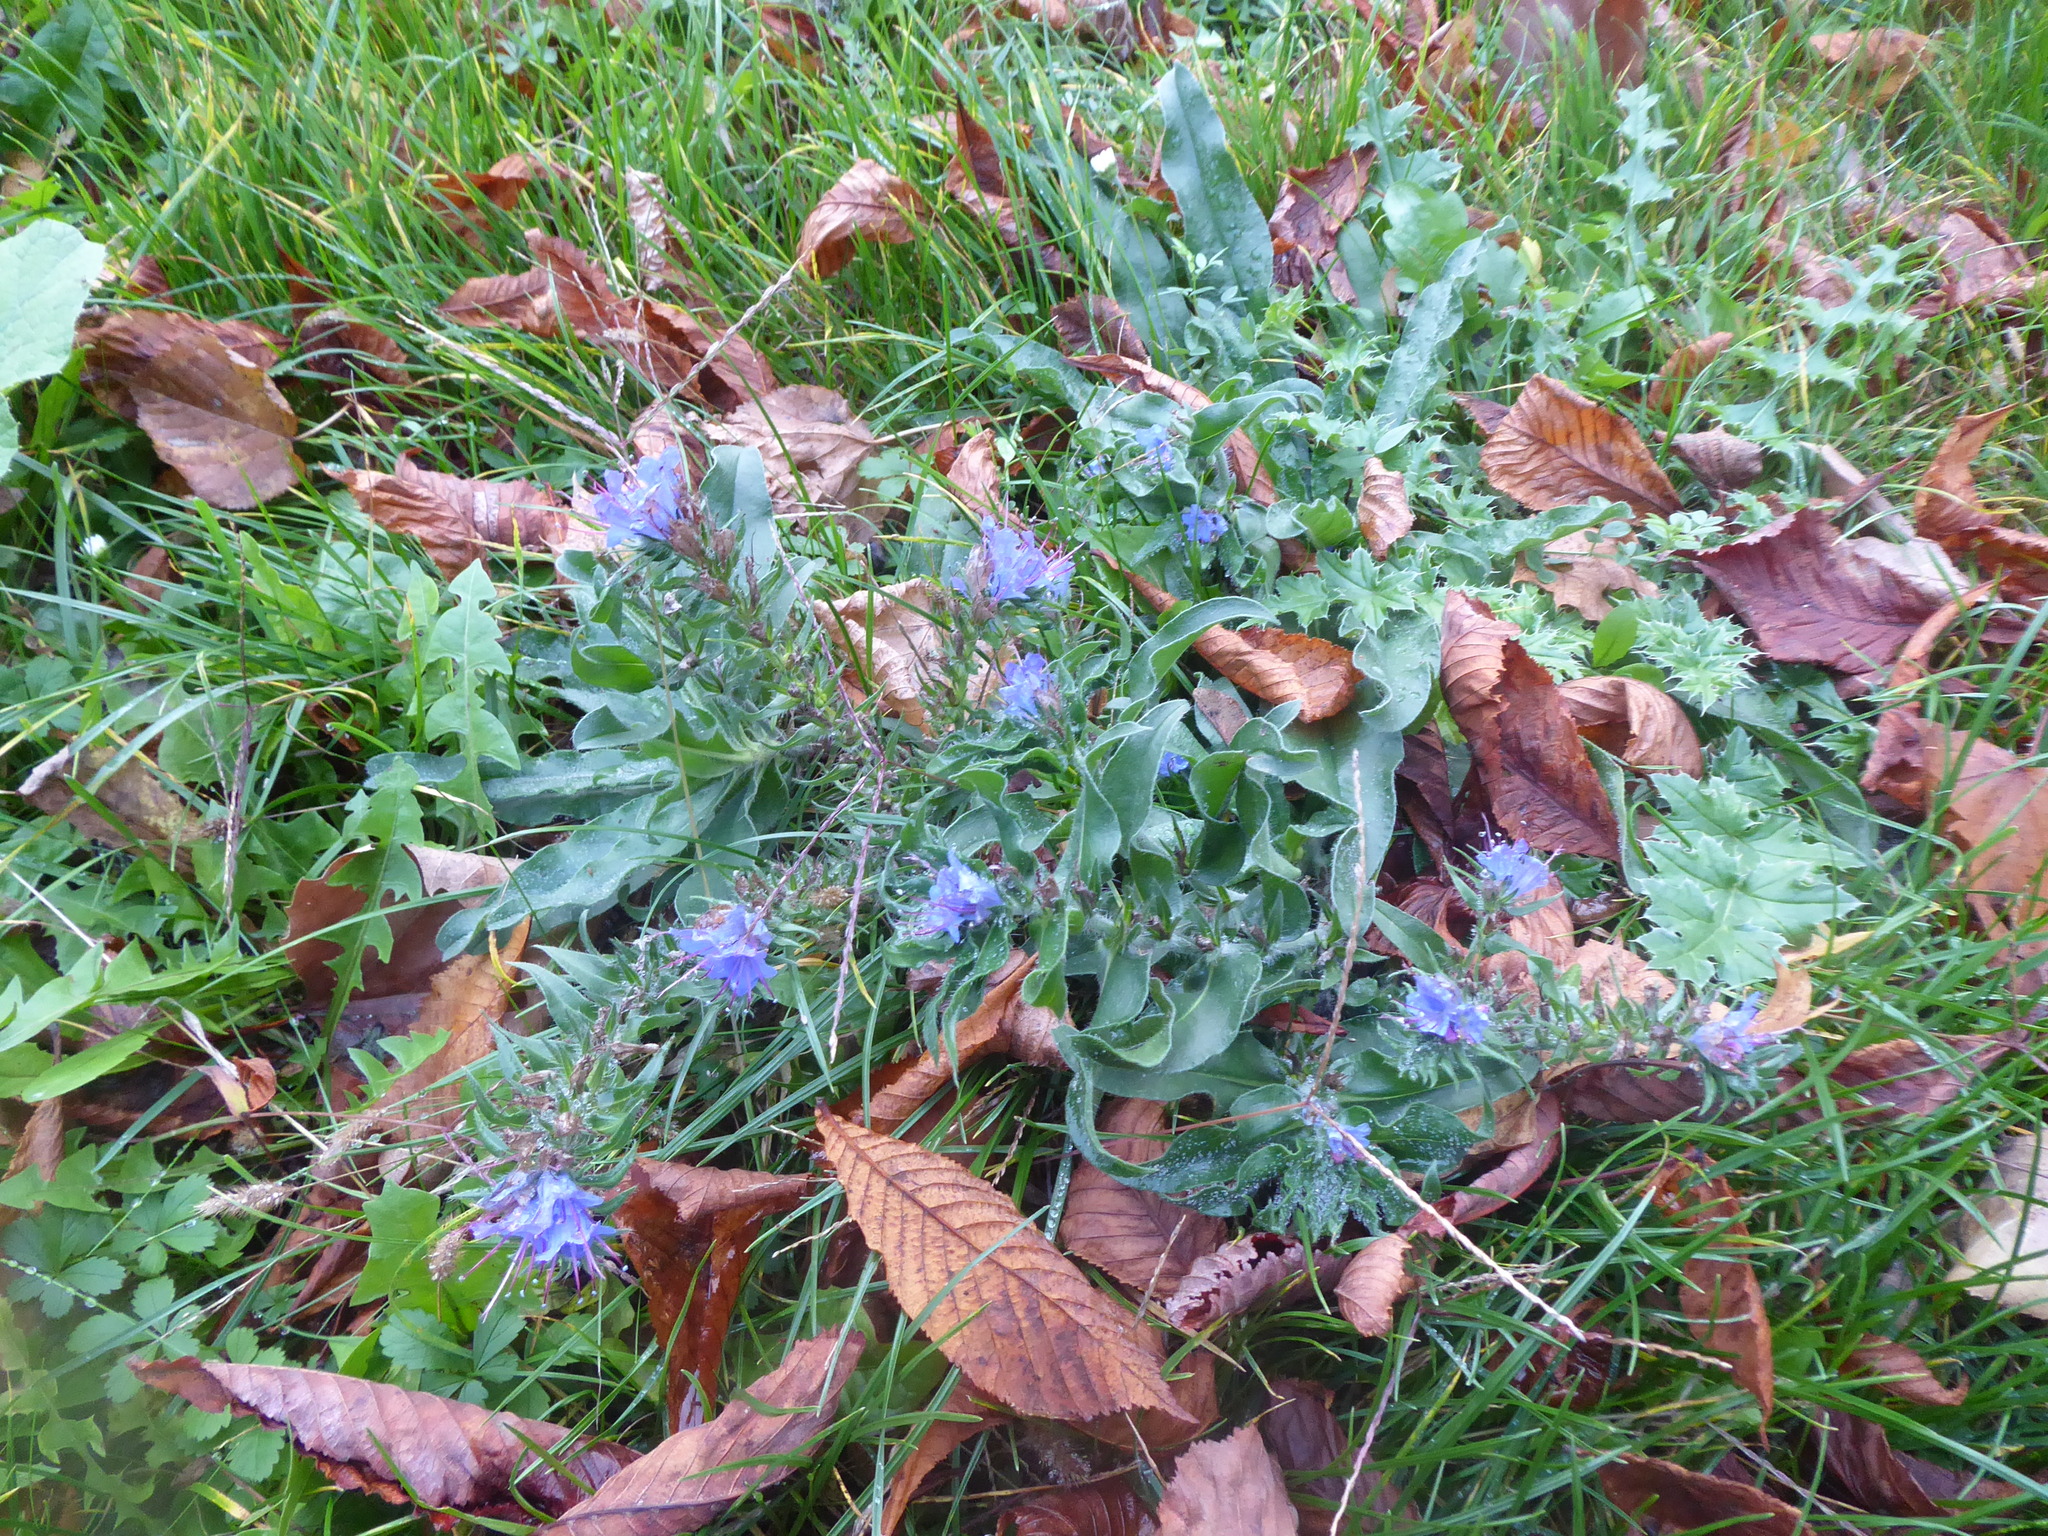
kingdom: Plantae
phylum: Tracheophyta
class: Magnoliopsida
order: Boraginales
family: Boraginaceae
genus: Echium
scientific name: Echium vulgare
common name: Common viper's bugloss
